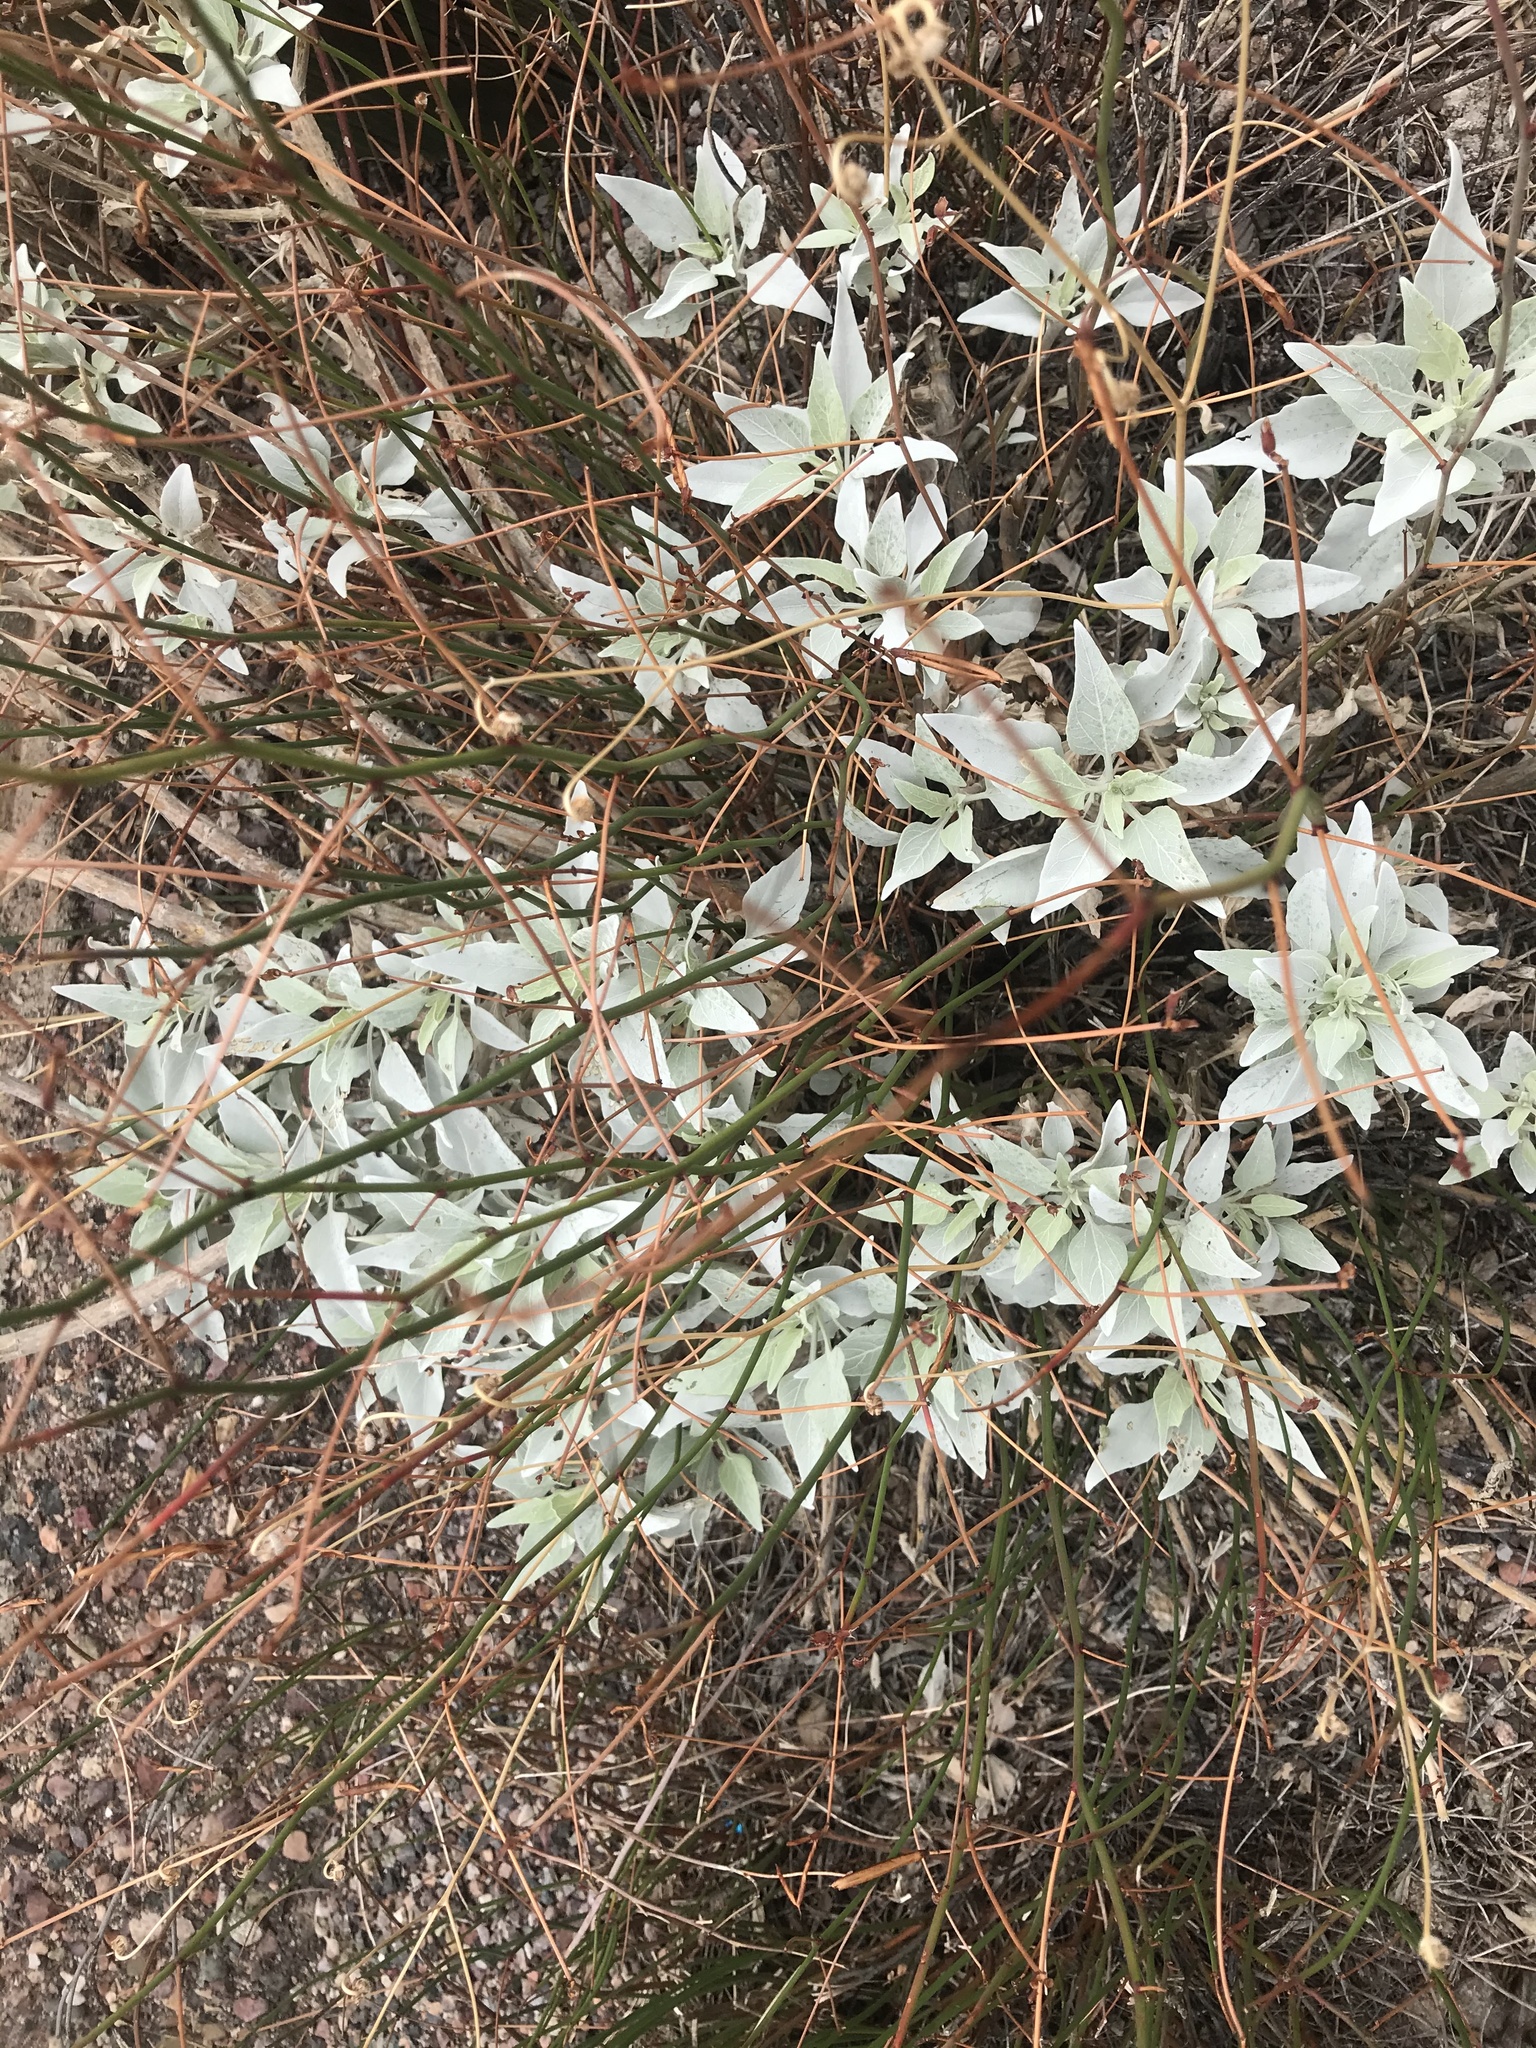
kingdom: Plantae
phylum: Tracheophyta
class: Magnoliopsida
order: Asterales
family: Asteraceae
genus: Encelia
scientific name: Encelia farinosa
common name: Brittlebush
